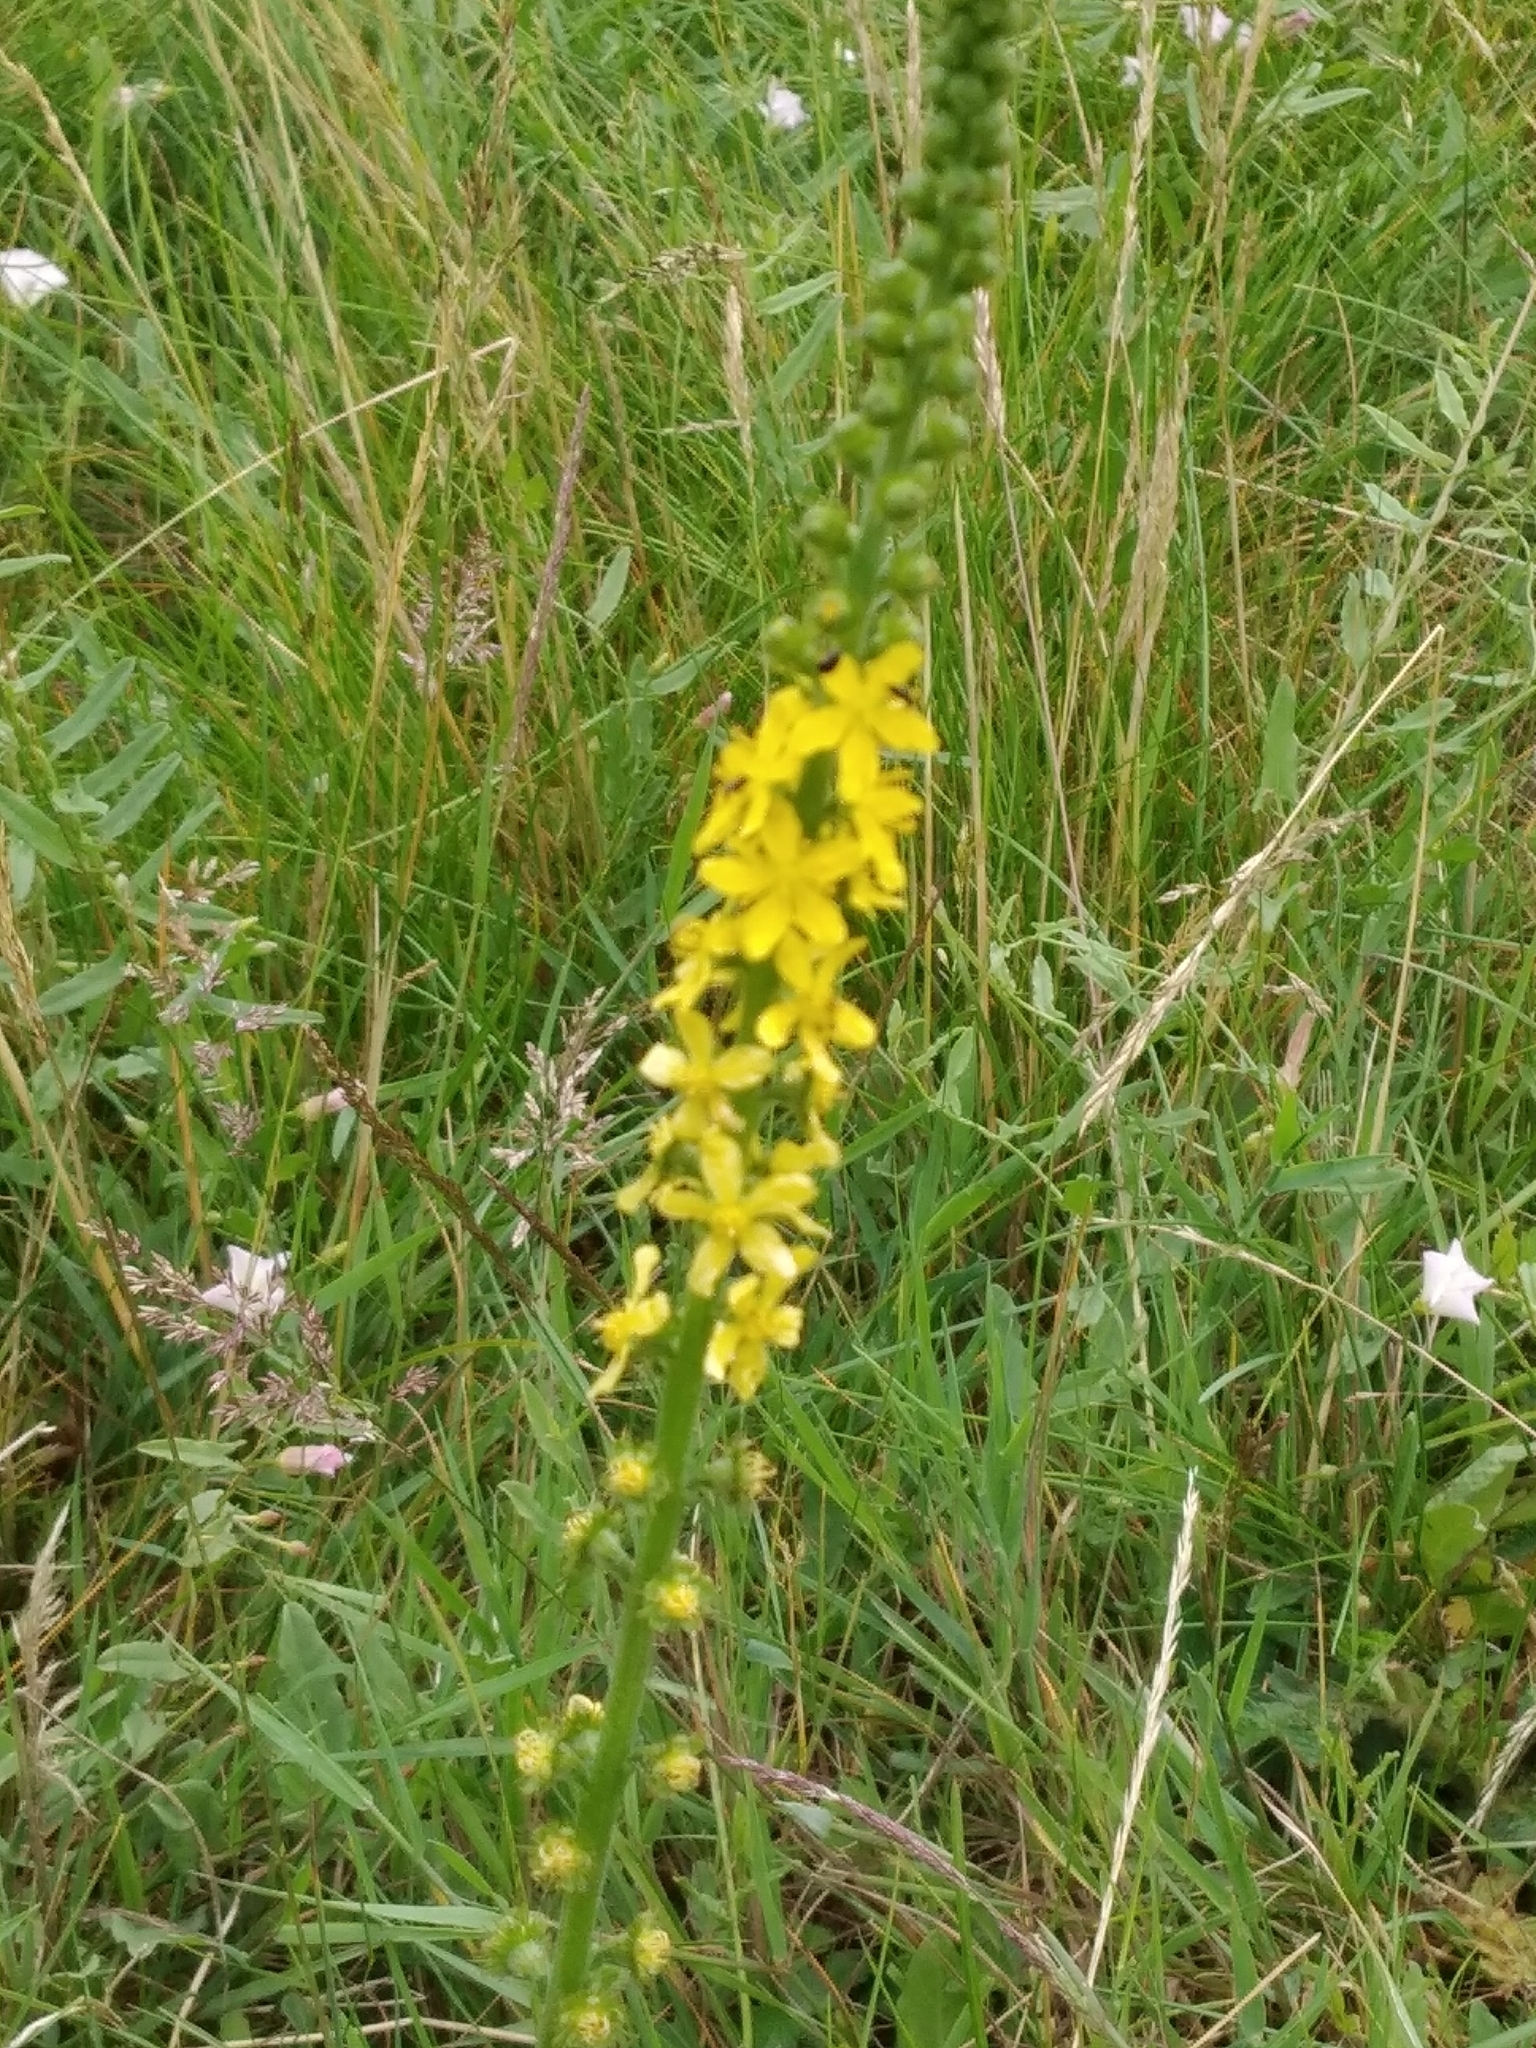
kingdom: Plantae
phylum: Tracheophyta
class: Magnoliopsida
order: Rosales
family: Rosaceae
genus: Agrimonia
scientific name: Agrimonia eupatoria
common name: Agrimony
